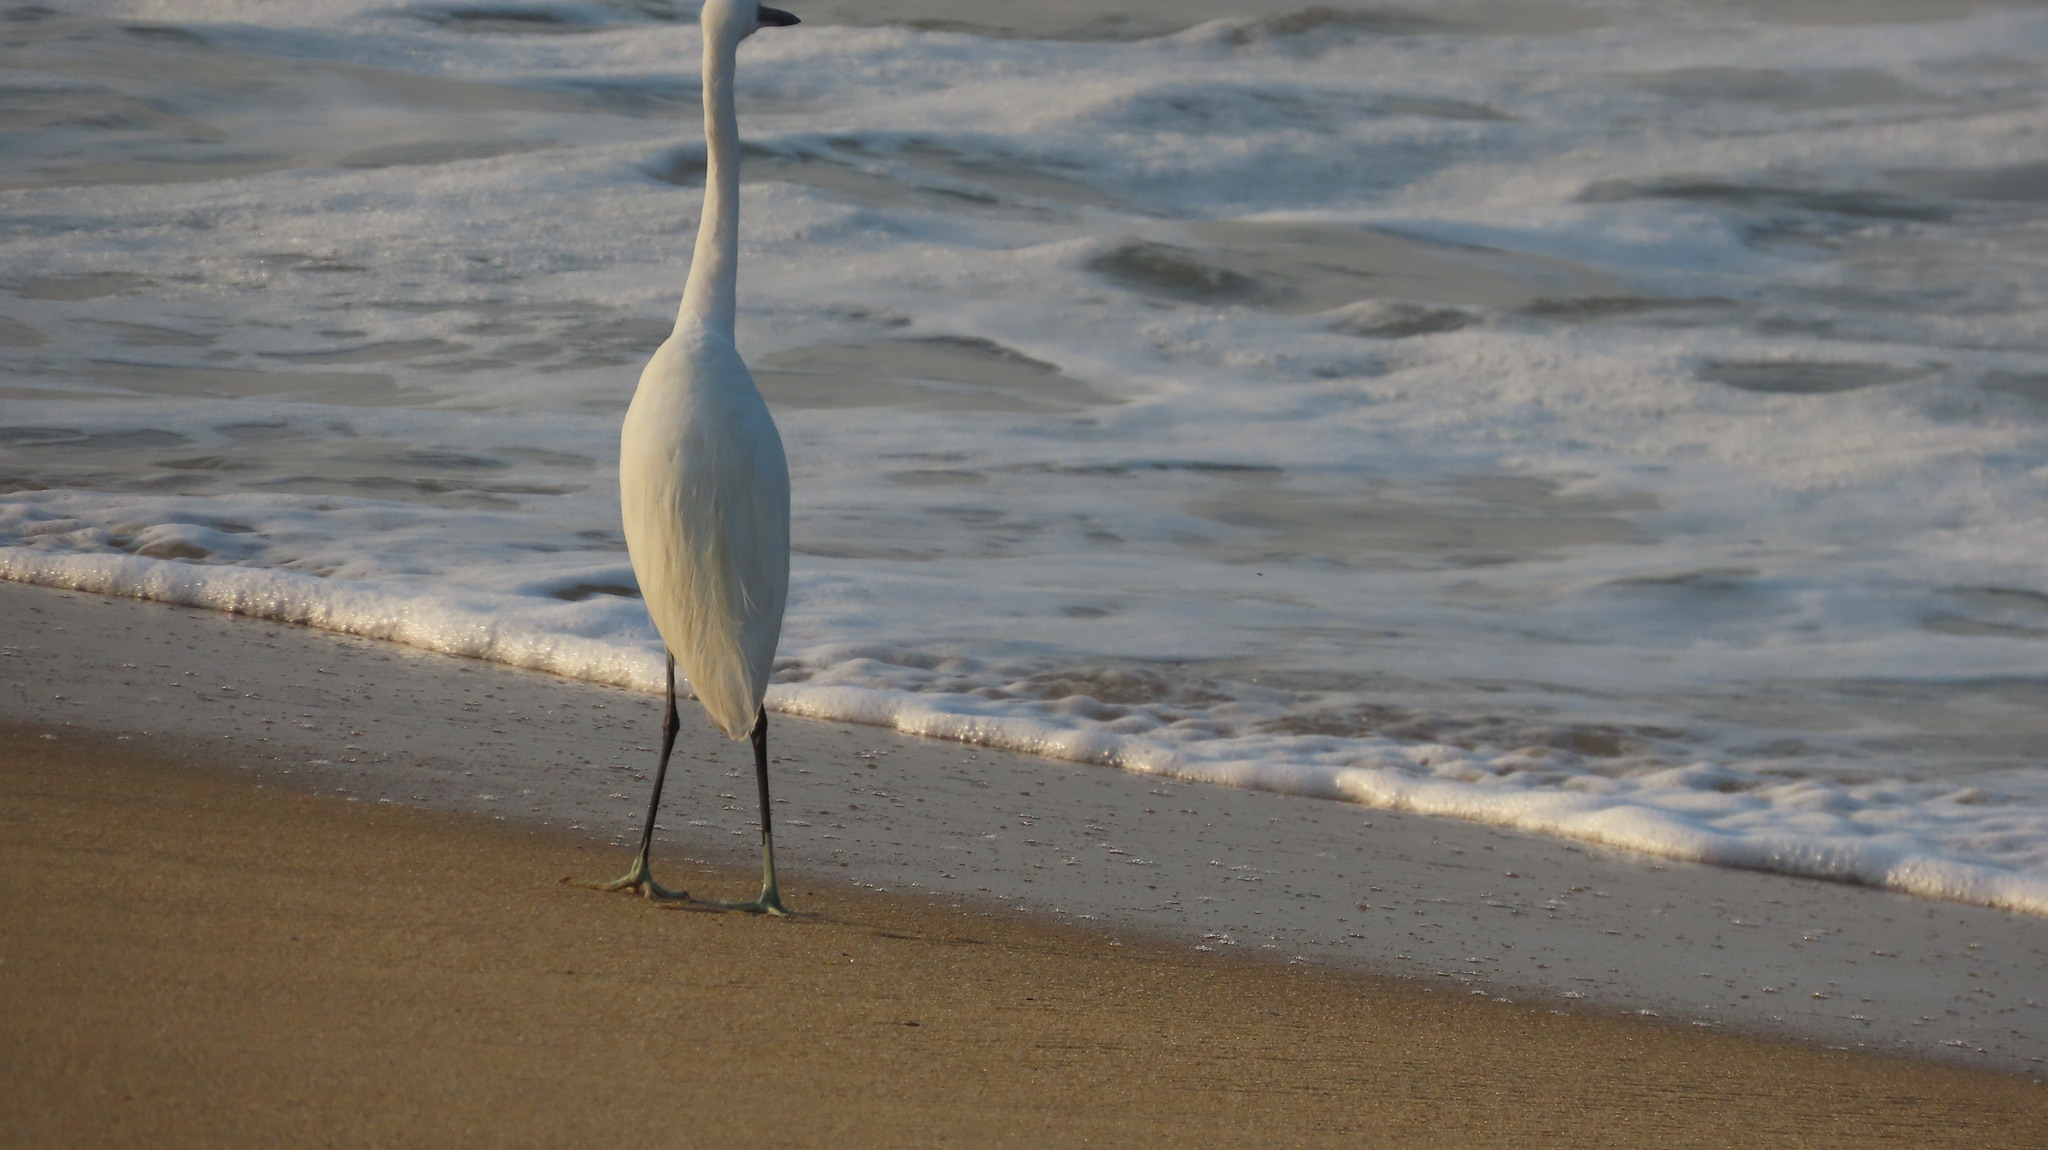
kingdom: Animalia
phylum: Chordata
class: Aves
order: Pelecaniformes
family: Ardeidae
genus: Egretta
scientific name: Egretta gularis
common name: Western reef-heron
